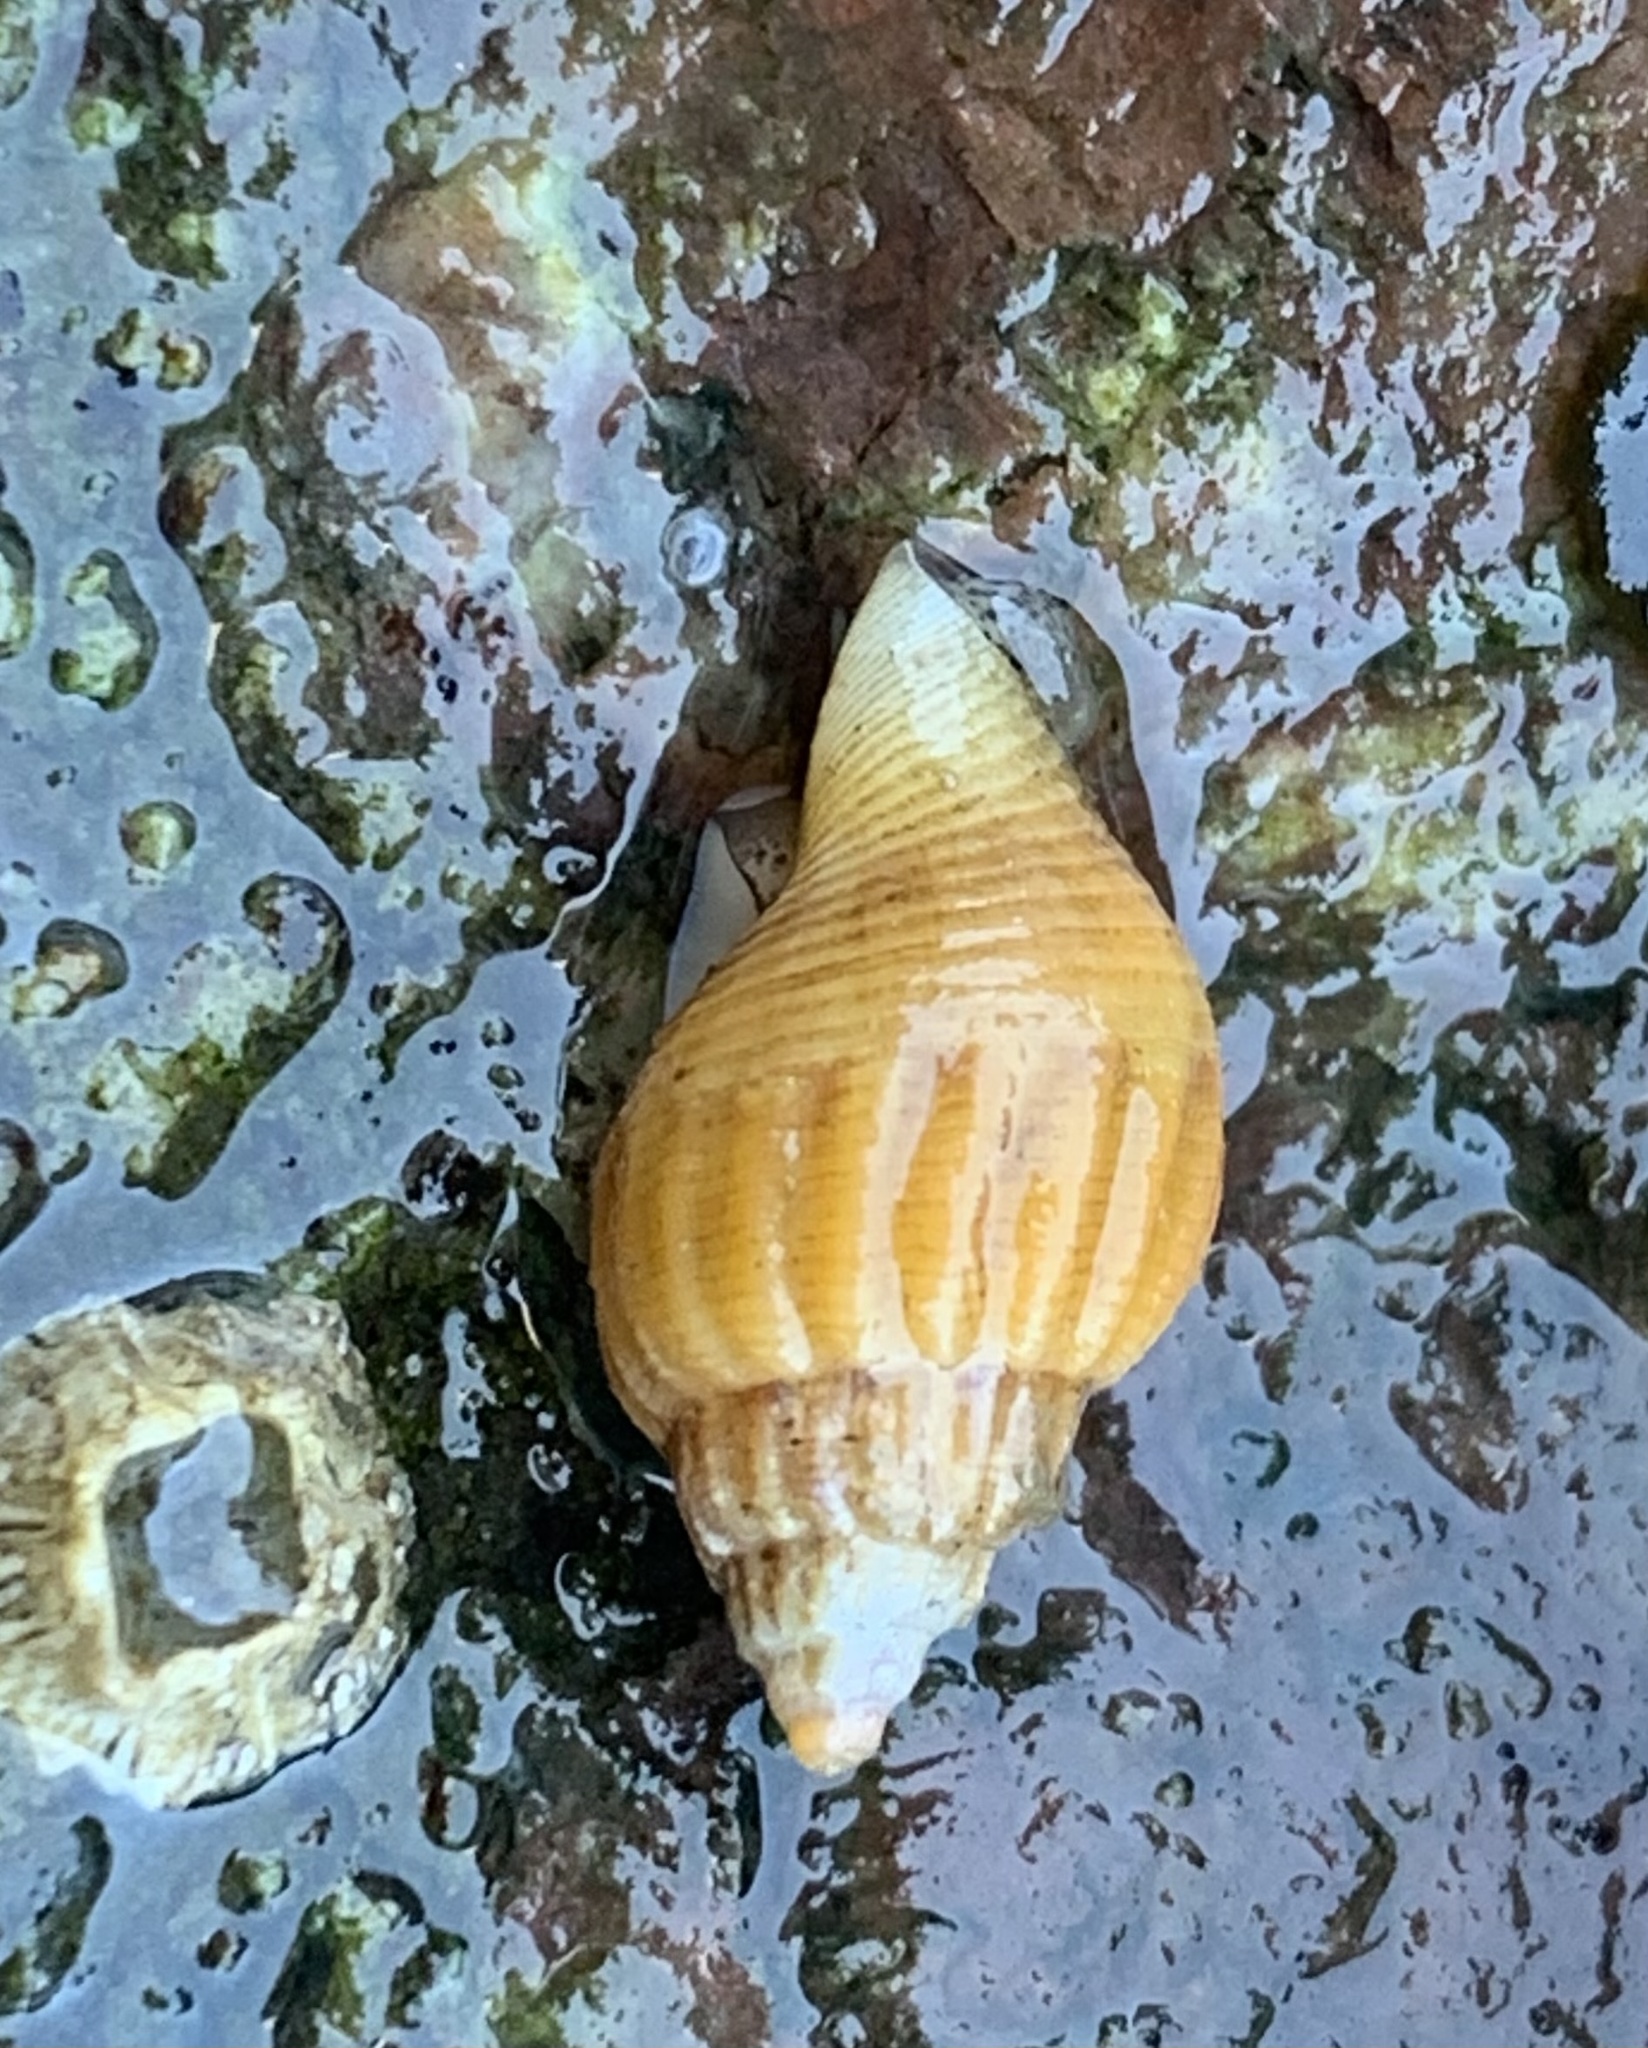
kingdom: Animalia
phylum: Mollusca
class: Gastropoda
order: Neogastropoda
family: Columbellidae
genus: Amphissa
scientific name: Amphissa columbiana
